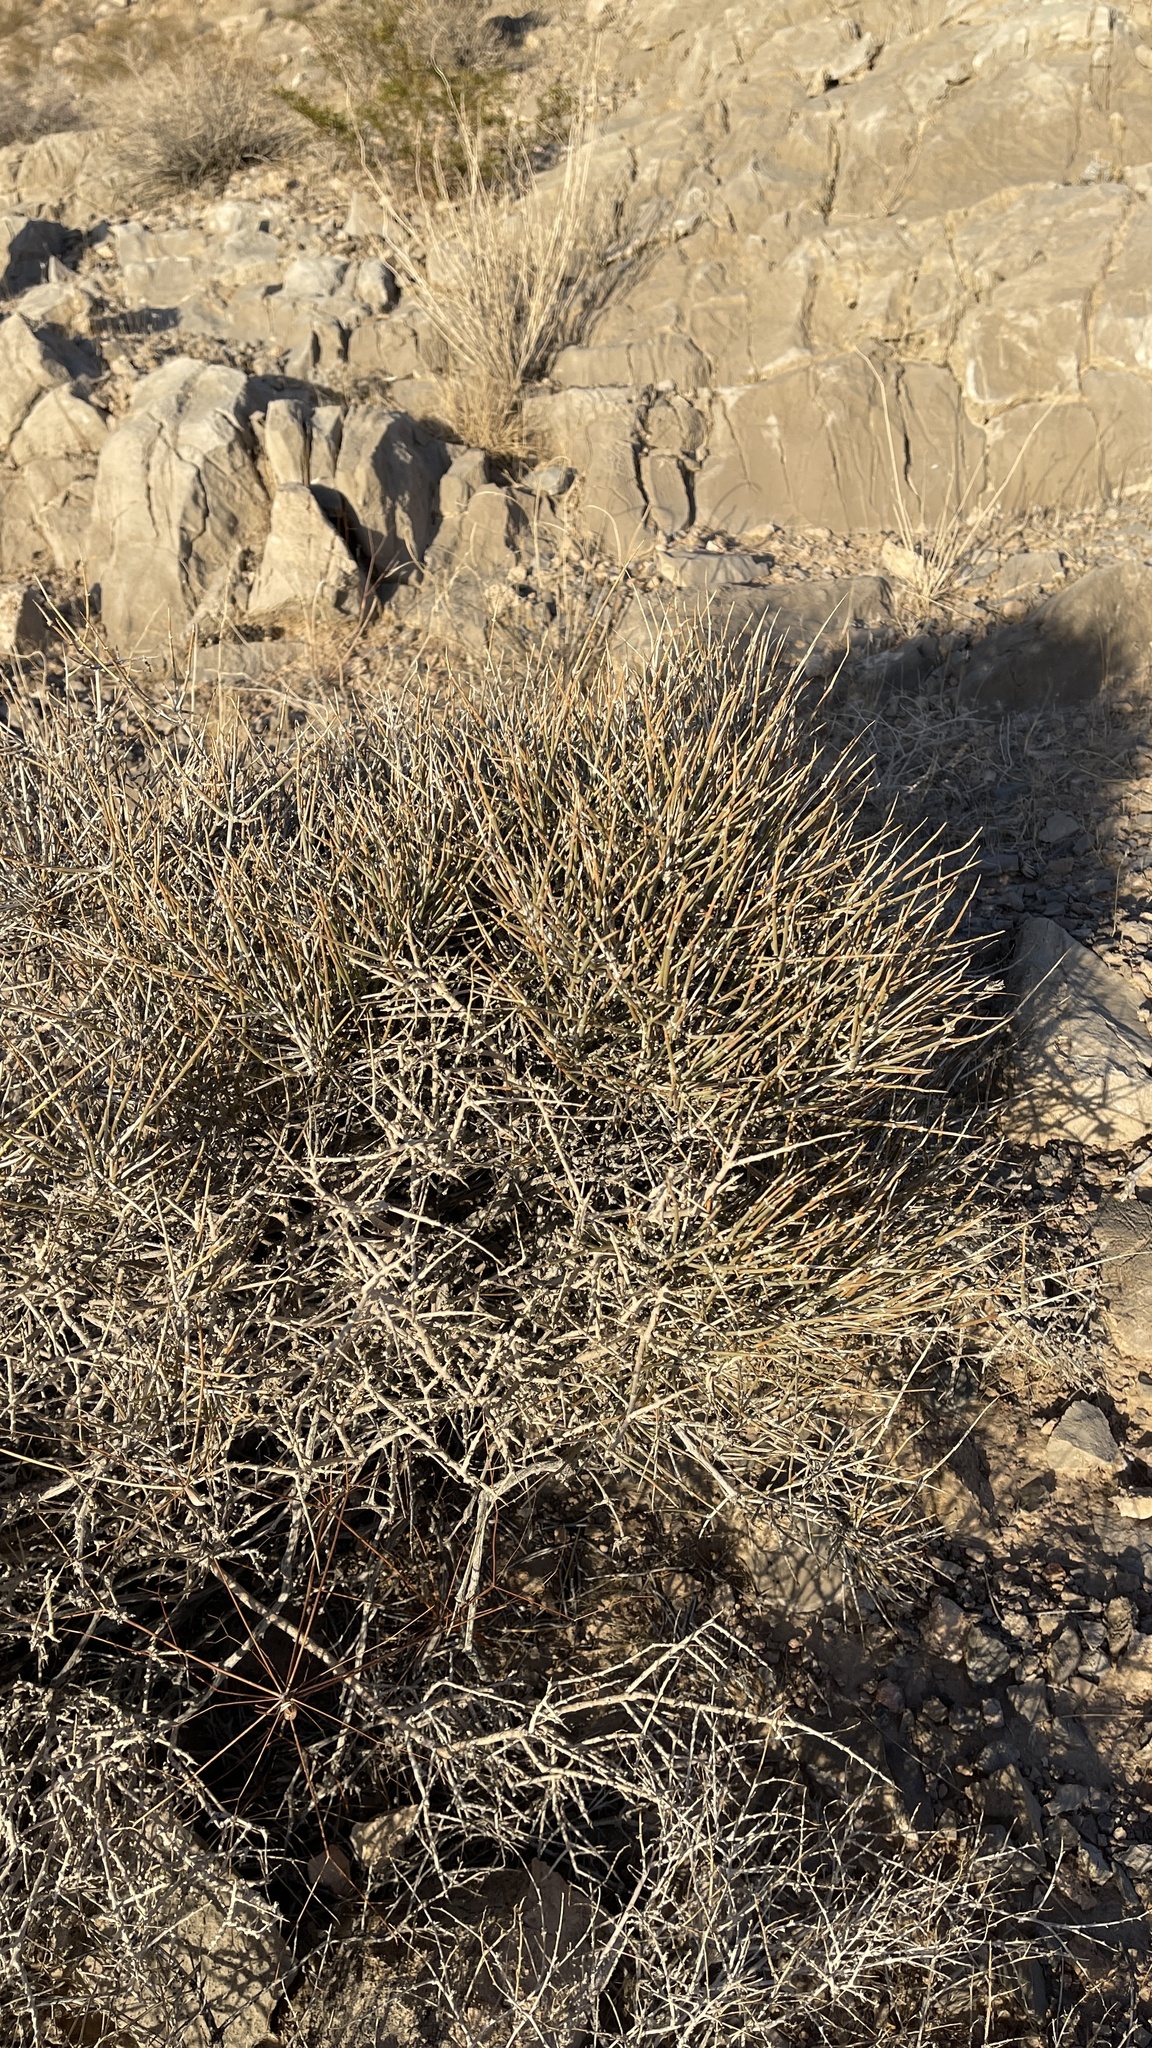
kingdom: Plantae
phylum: Tracheophyta
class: Gnetopsida
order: Ephedrales
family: Ephedraceae
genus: Ephedra
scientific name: Ephedra nevadensis
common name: Gray ephedra
